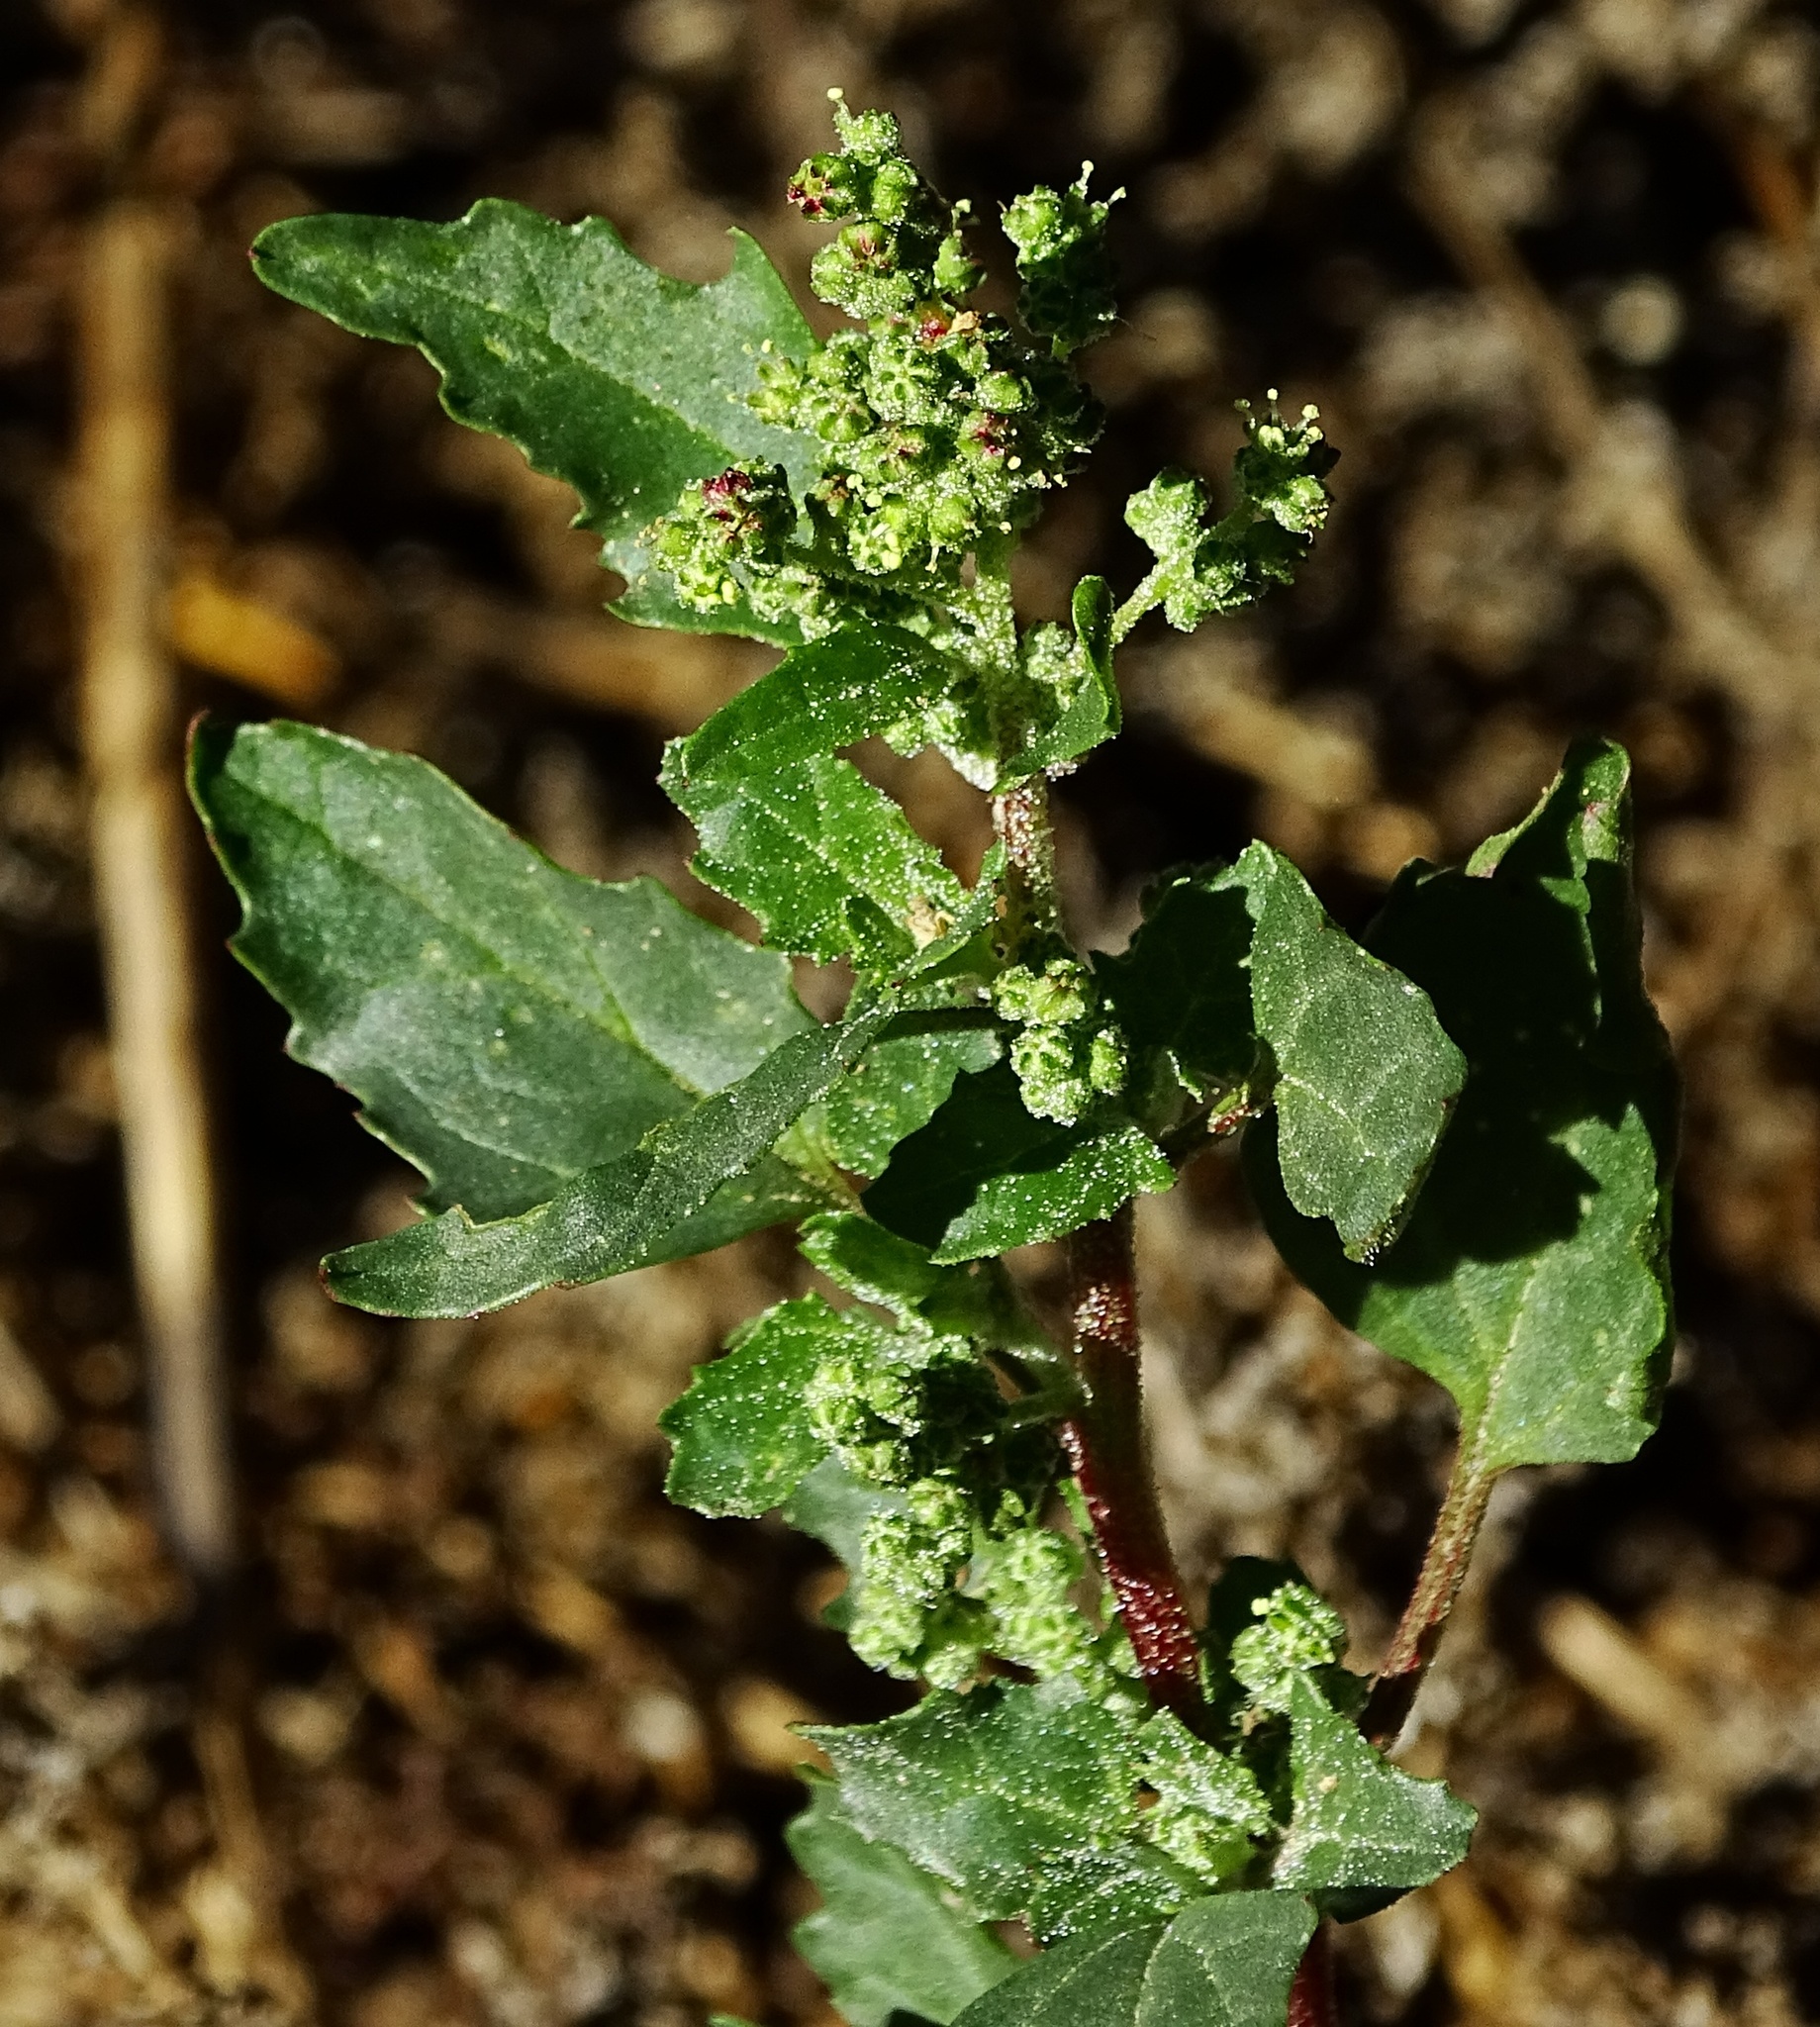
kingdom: Plantae
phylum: Tracheophyta
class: Magnoliopsida
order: Caryophyllales
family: Amaranthaceae
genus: Chenopodiastrum
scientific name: Chenopodiastrum murale
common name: Sowbane
